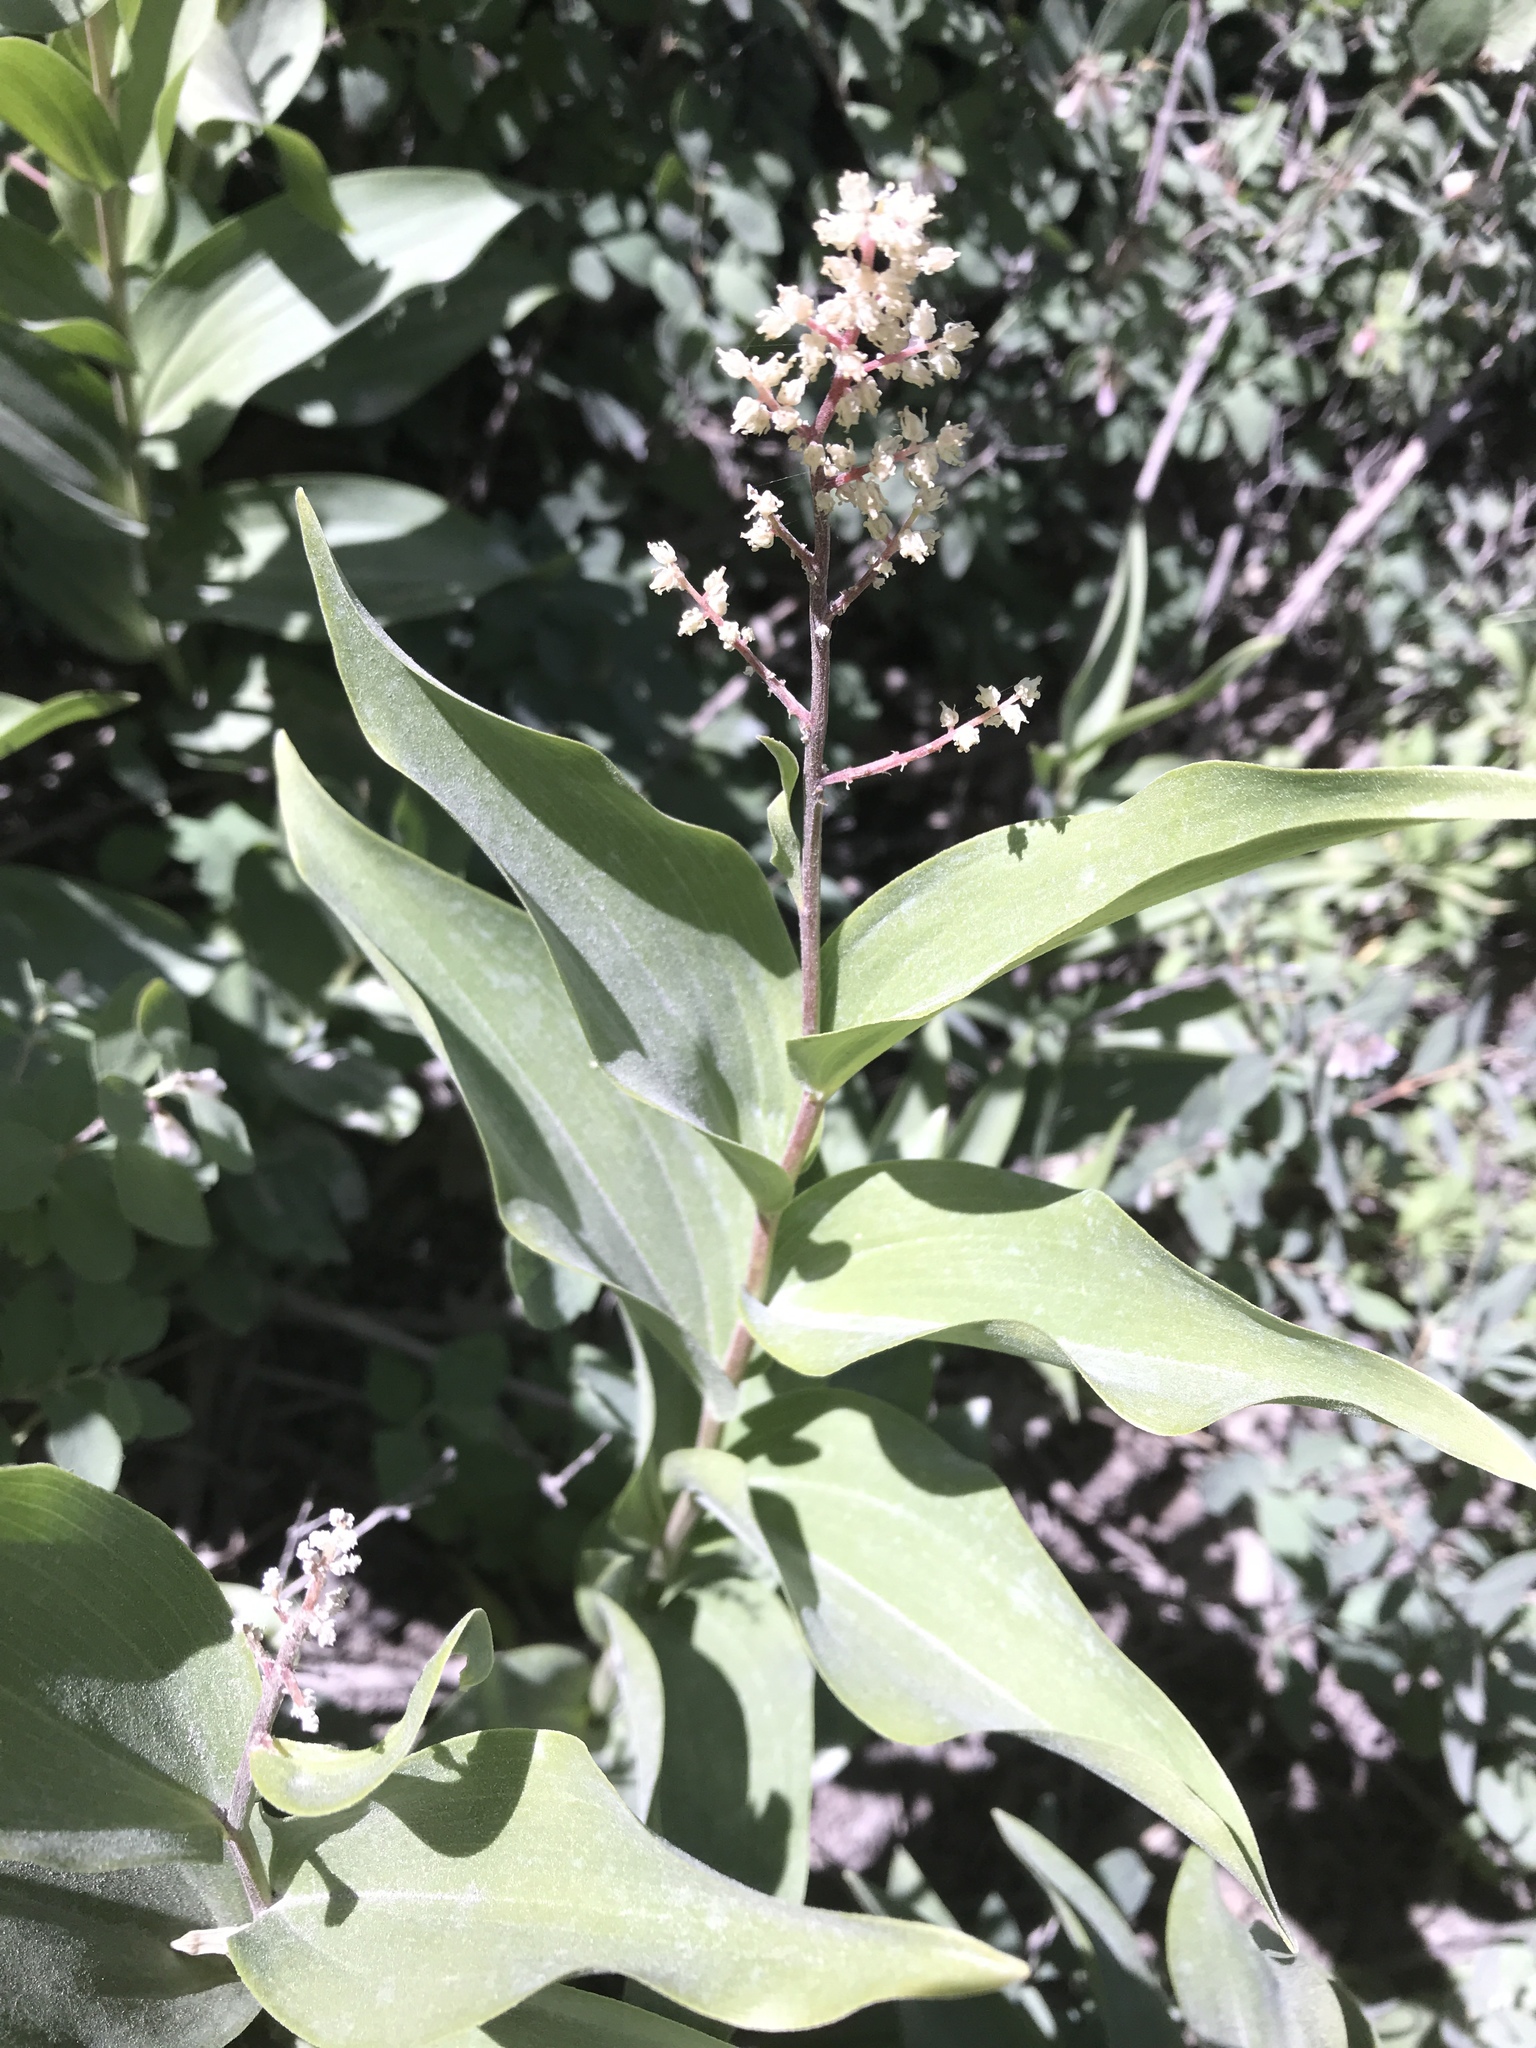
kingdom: Plantae
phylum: Tracheophyta
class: Liliopsida
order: Asparagales
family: Asparagaceae
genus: Maianthemum
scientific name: Maianthemum racemosum
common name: False spikenard
